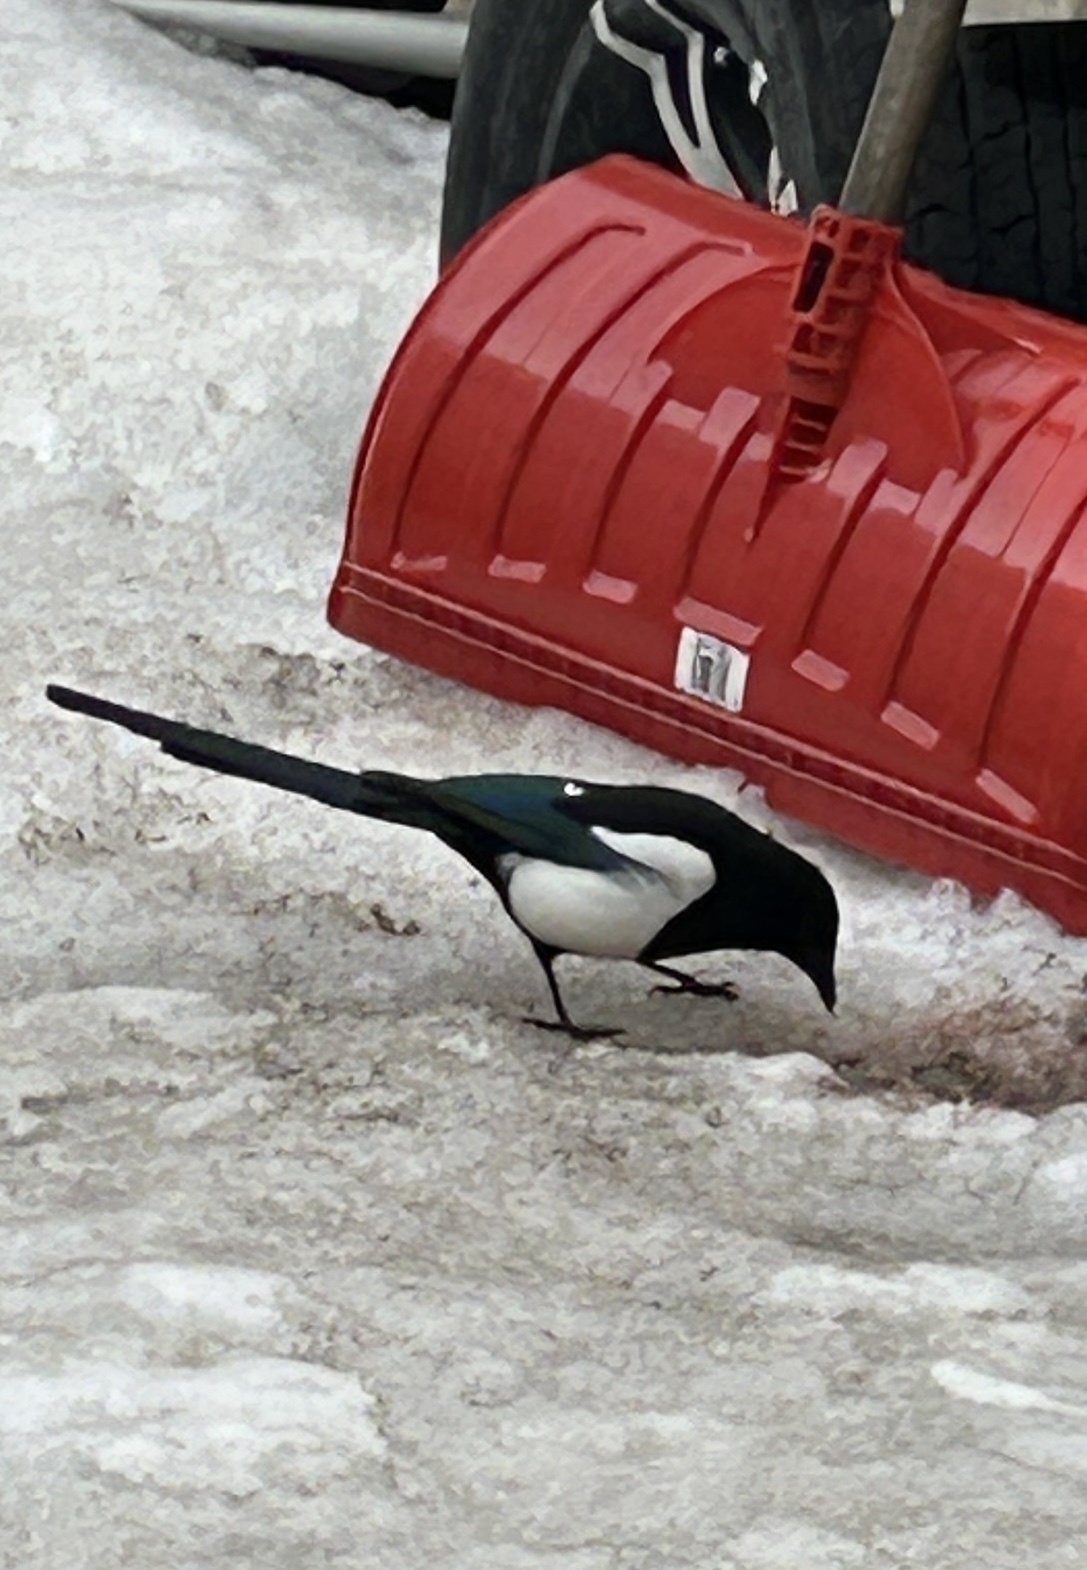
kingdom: Animalia
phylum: Chordata
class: Aves
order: Passeriformes
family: Corvidae
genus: Pica
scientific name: Pica hudsonia
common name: Black-billed magpie
